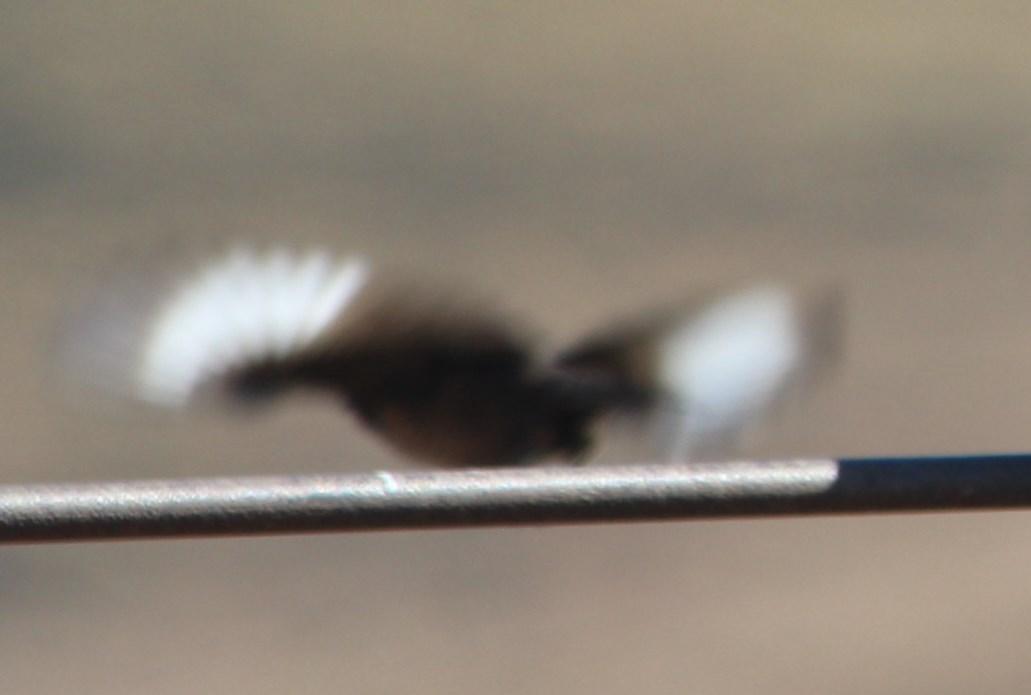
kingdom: Animalia
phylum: Chordata
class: Aves
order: Passeriformes
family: Muscicapidae
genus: Myrmecocichla
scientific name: Myrmecocichla formicivora
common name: Ant-eating chat
